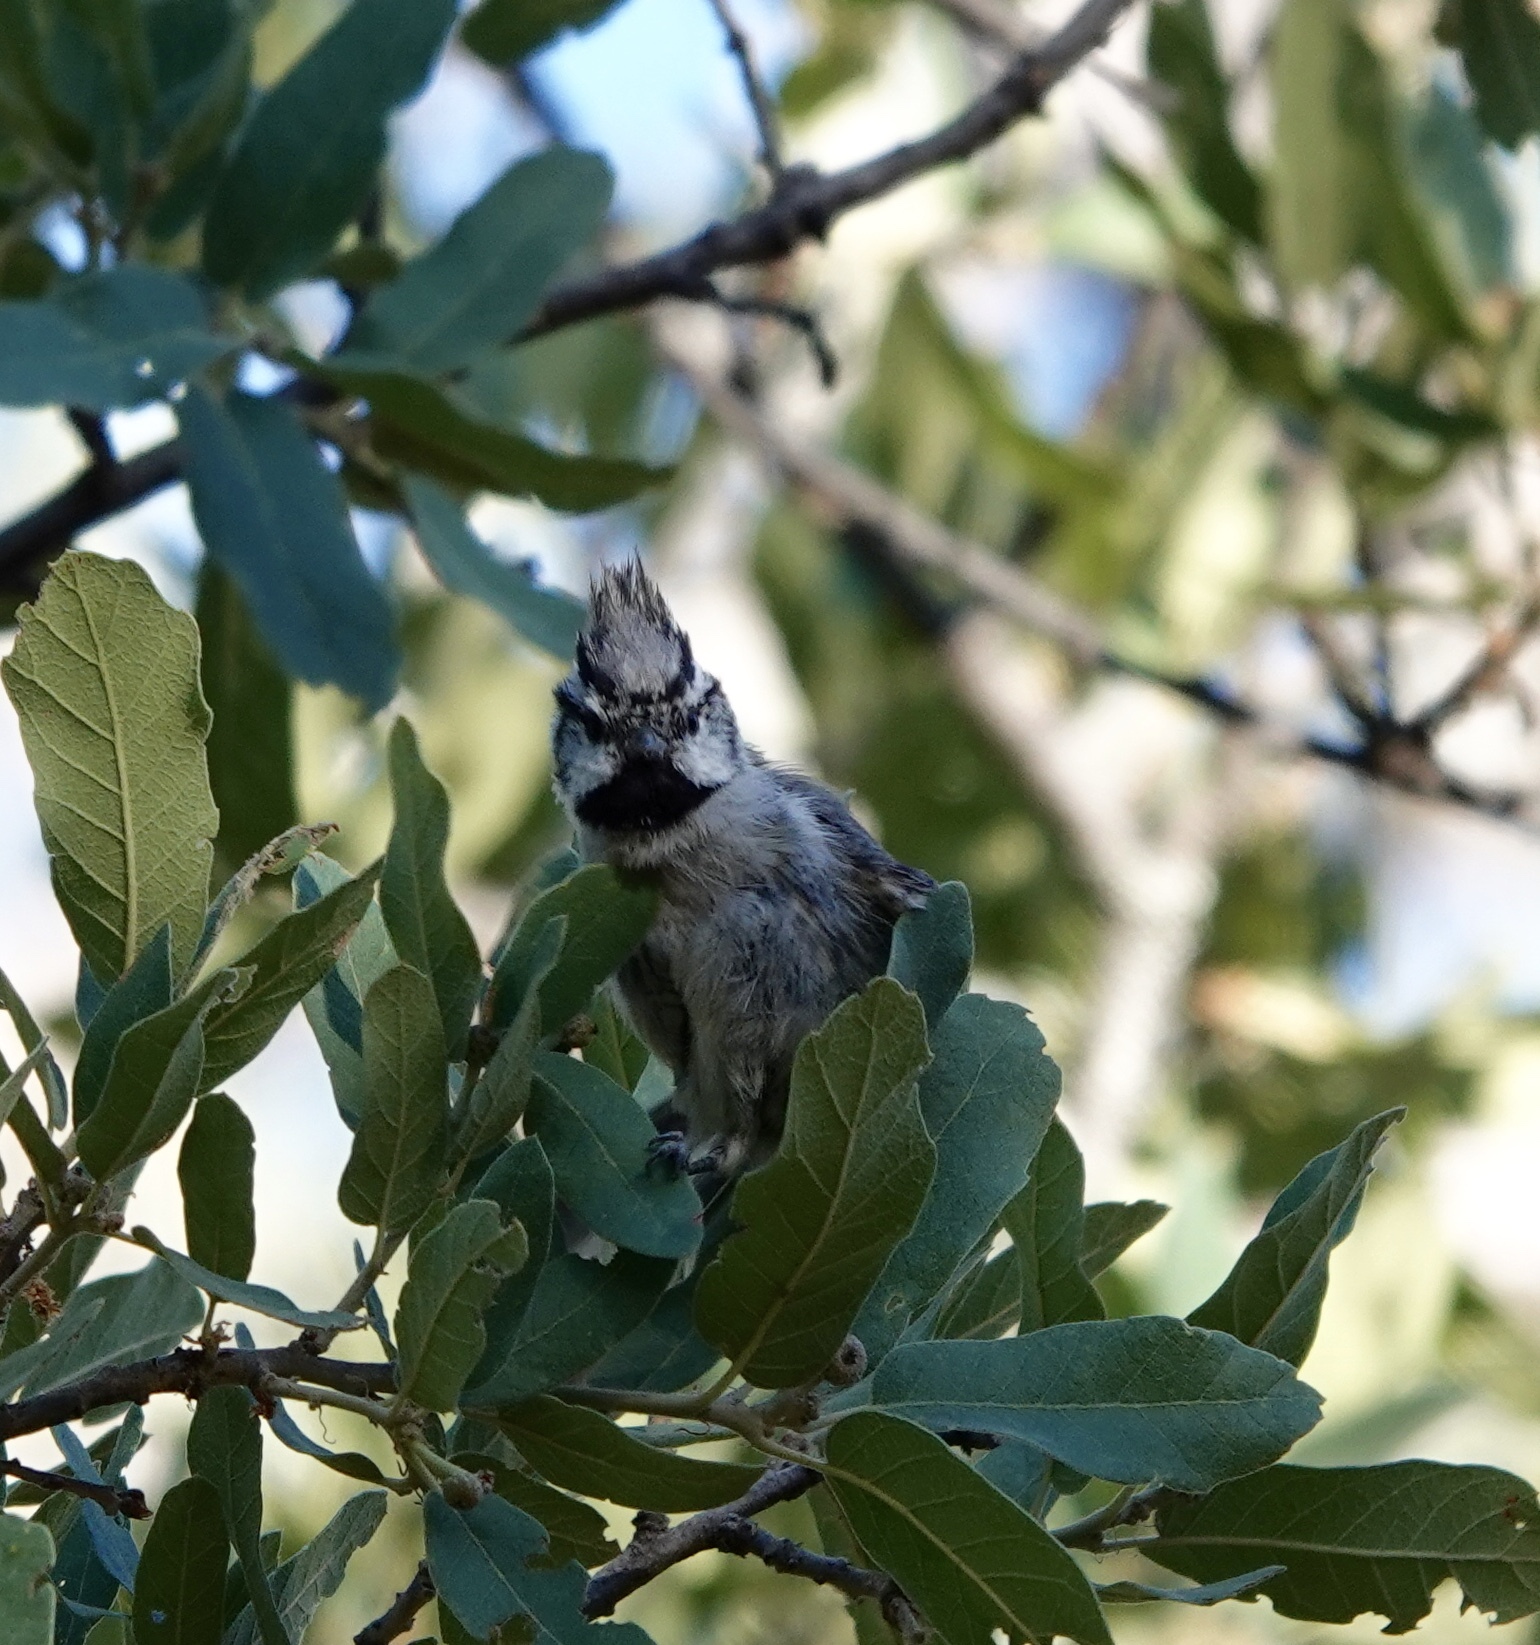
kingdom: Animalia
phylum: Chordata
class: Aves
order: Passeriformes
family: Paridae
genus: Baeolophus
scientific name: Baeolophus wollweberi
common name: Bridled titmouse
